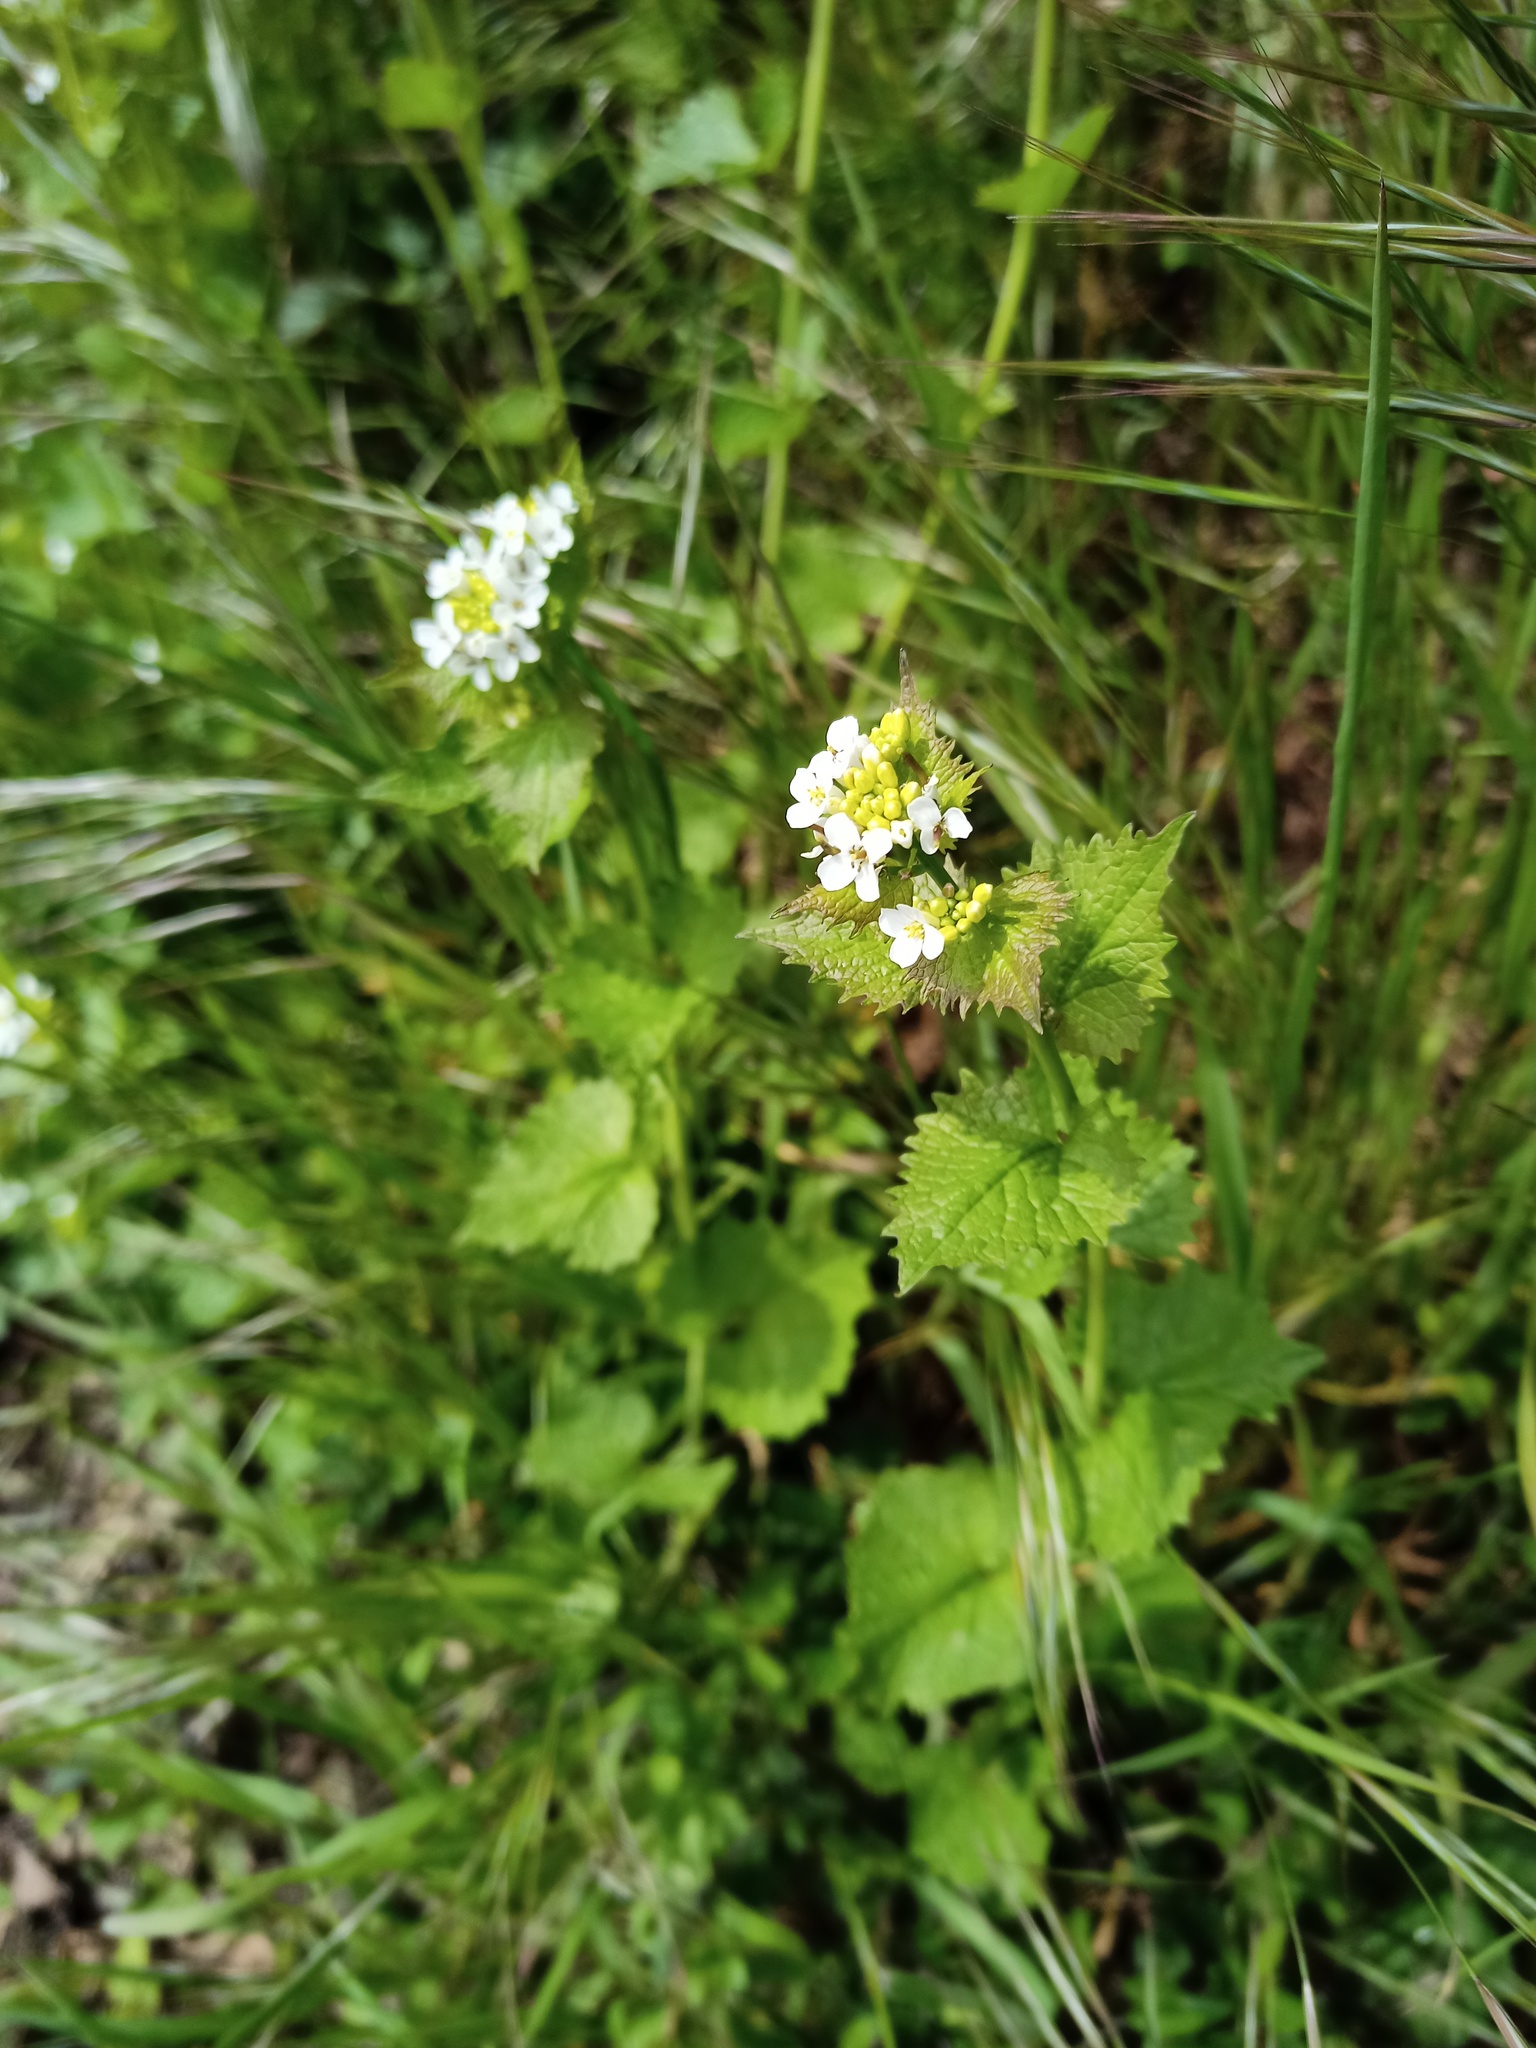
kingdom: Plantae
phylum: Tracheophyta
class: Magnoliopsida
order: Brassicales
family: Brassicaceae
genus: Alliaria
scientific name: Alliaria petiolata
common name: Garlic mustard
